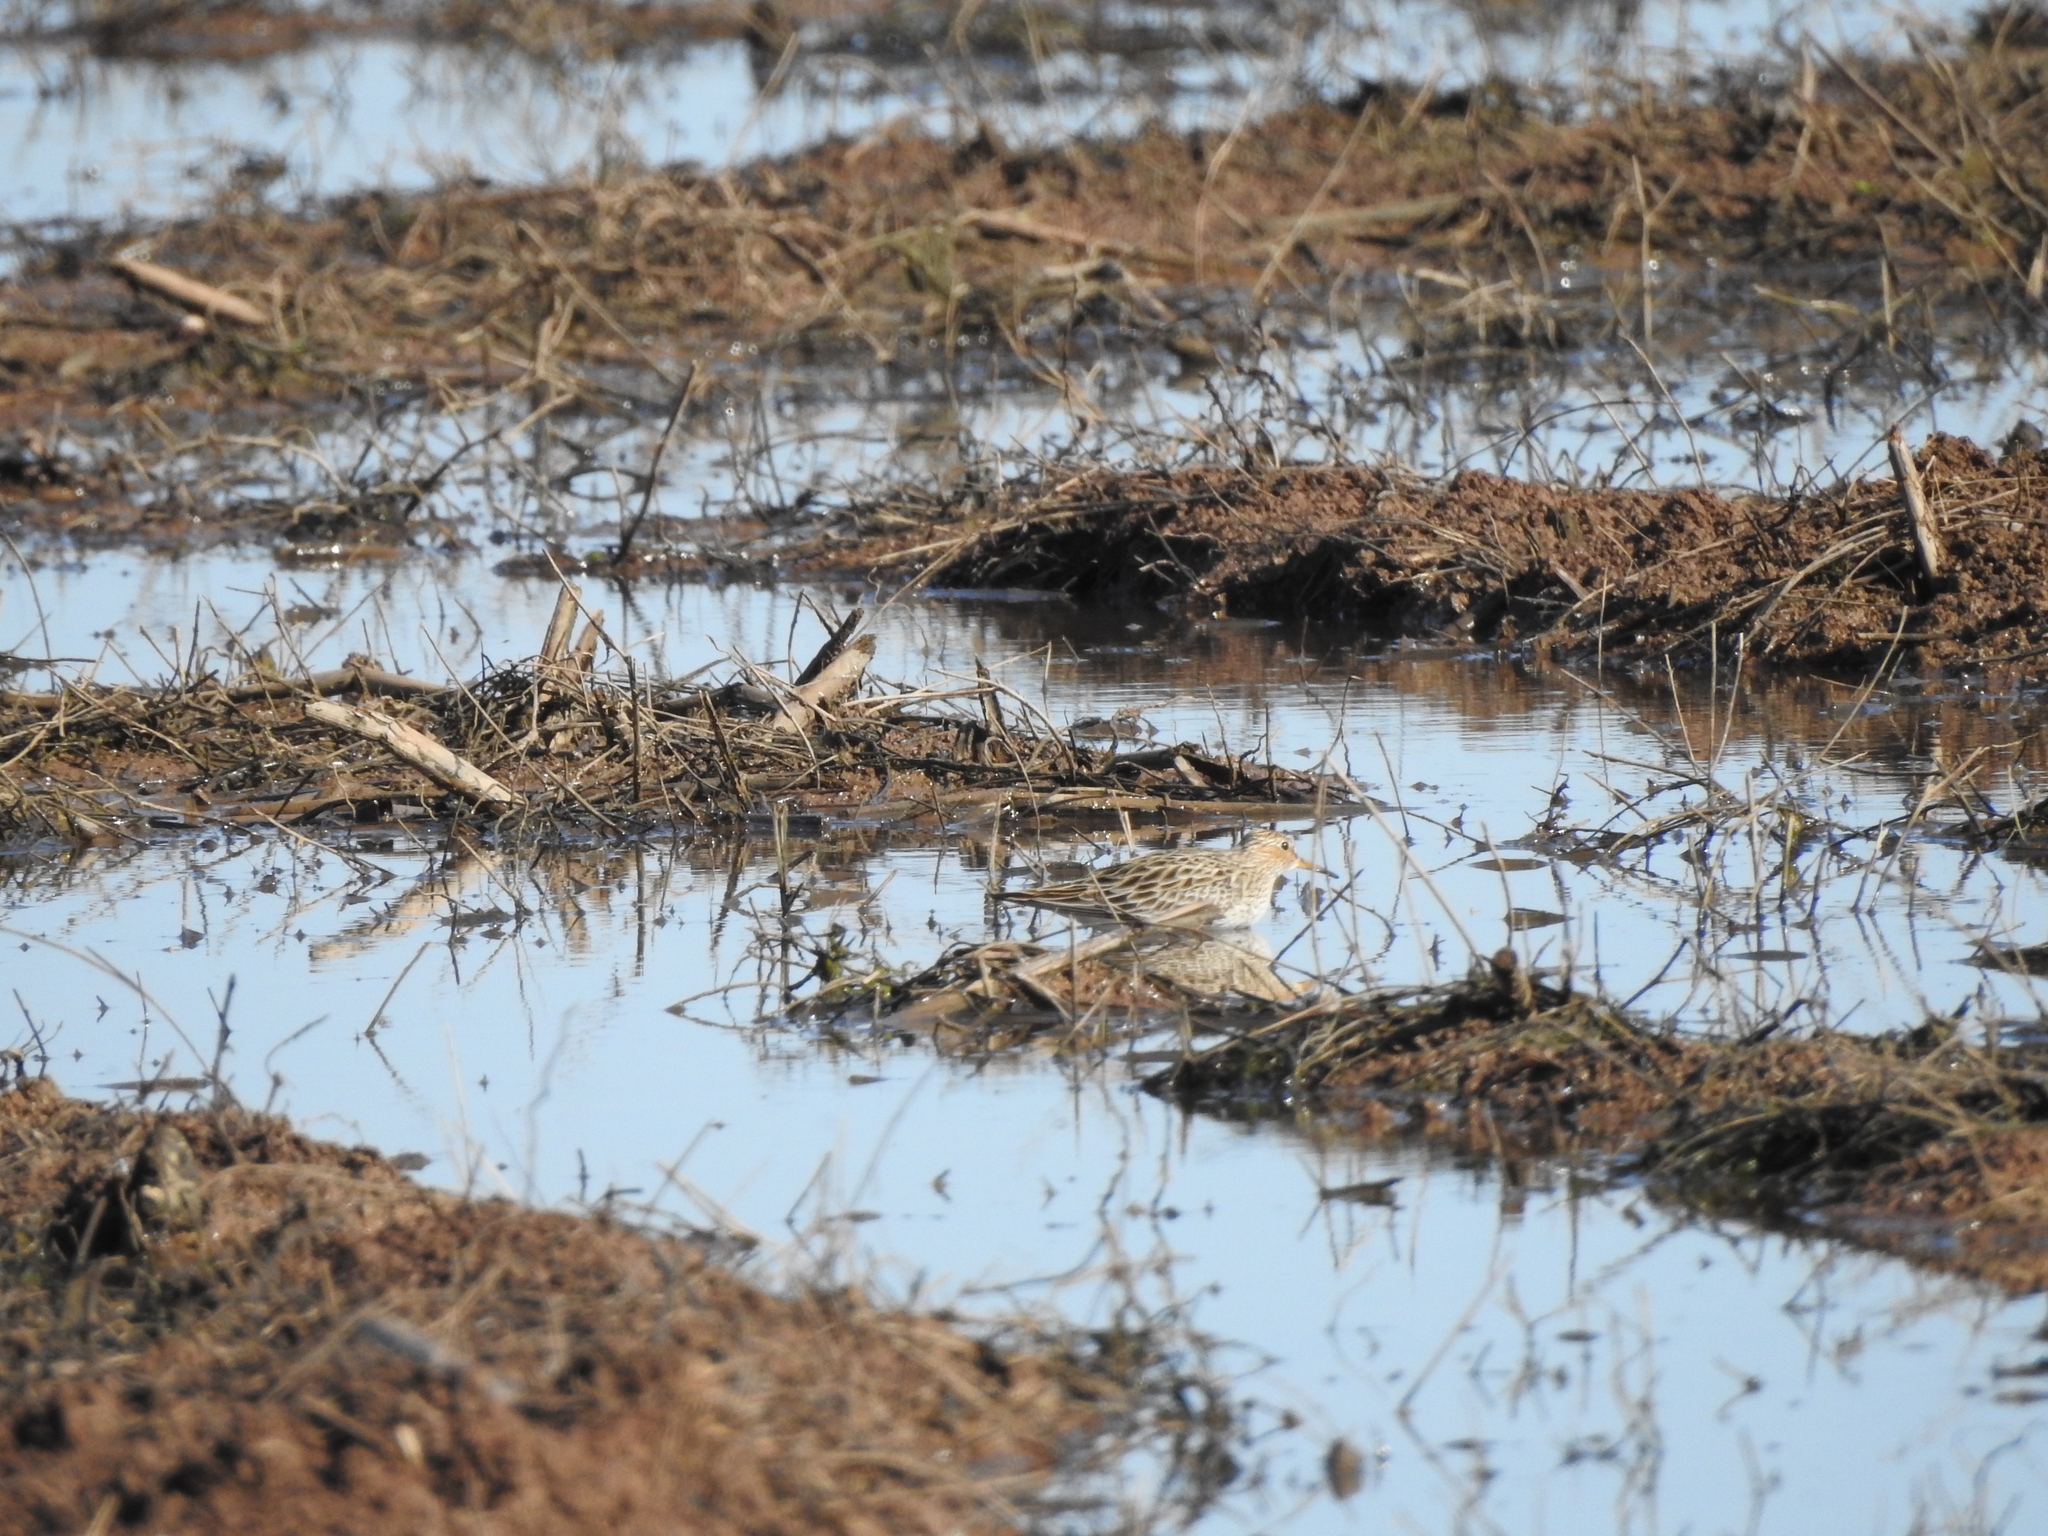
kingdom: Animalia
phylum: Chordata
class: Aves
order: Charadriiformes
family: Scolopacidae
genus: Calidris
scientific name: Calidris melanotos
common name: Pectoral sandpiper
